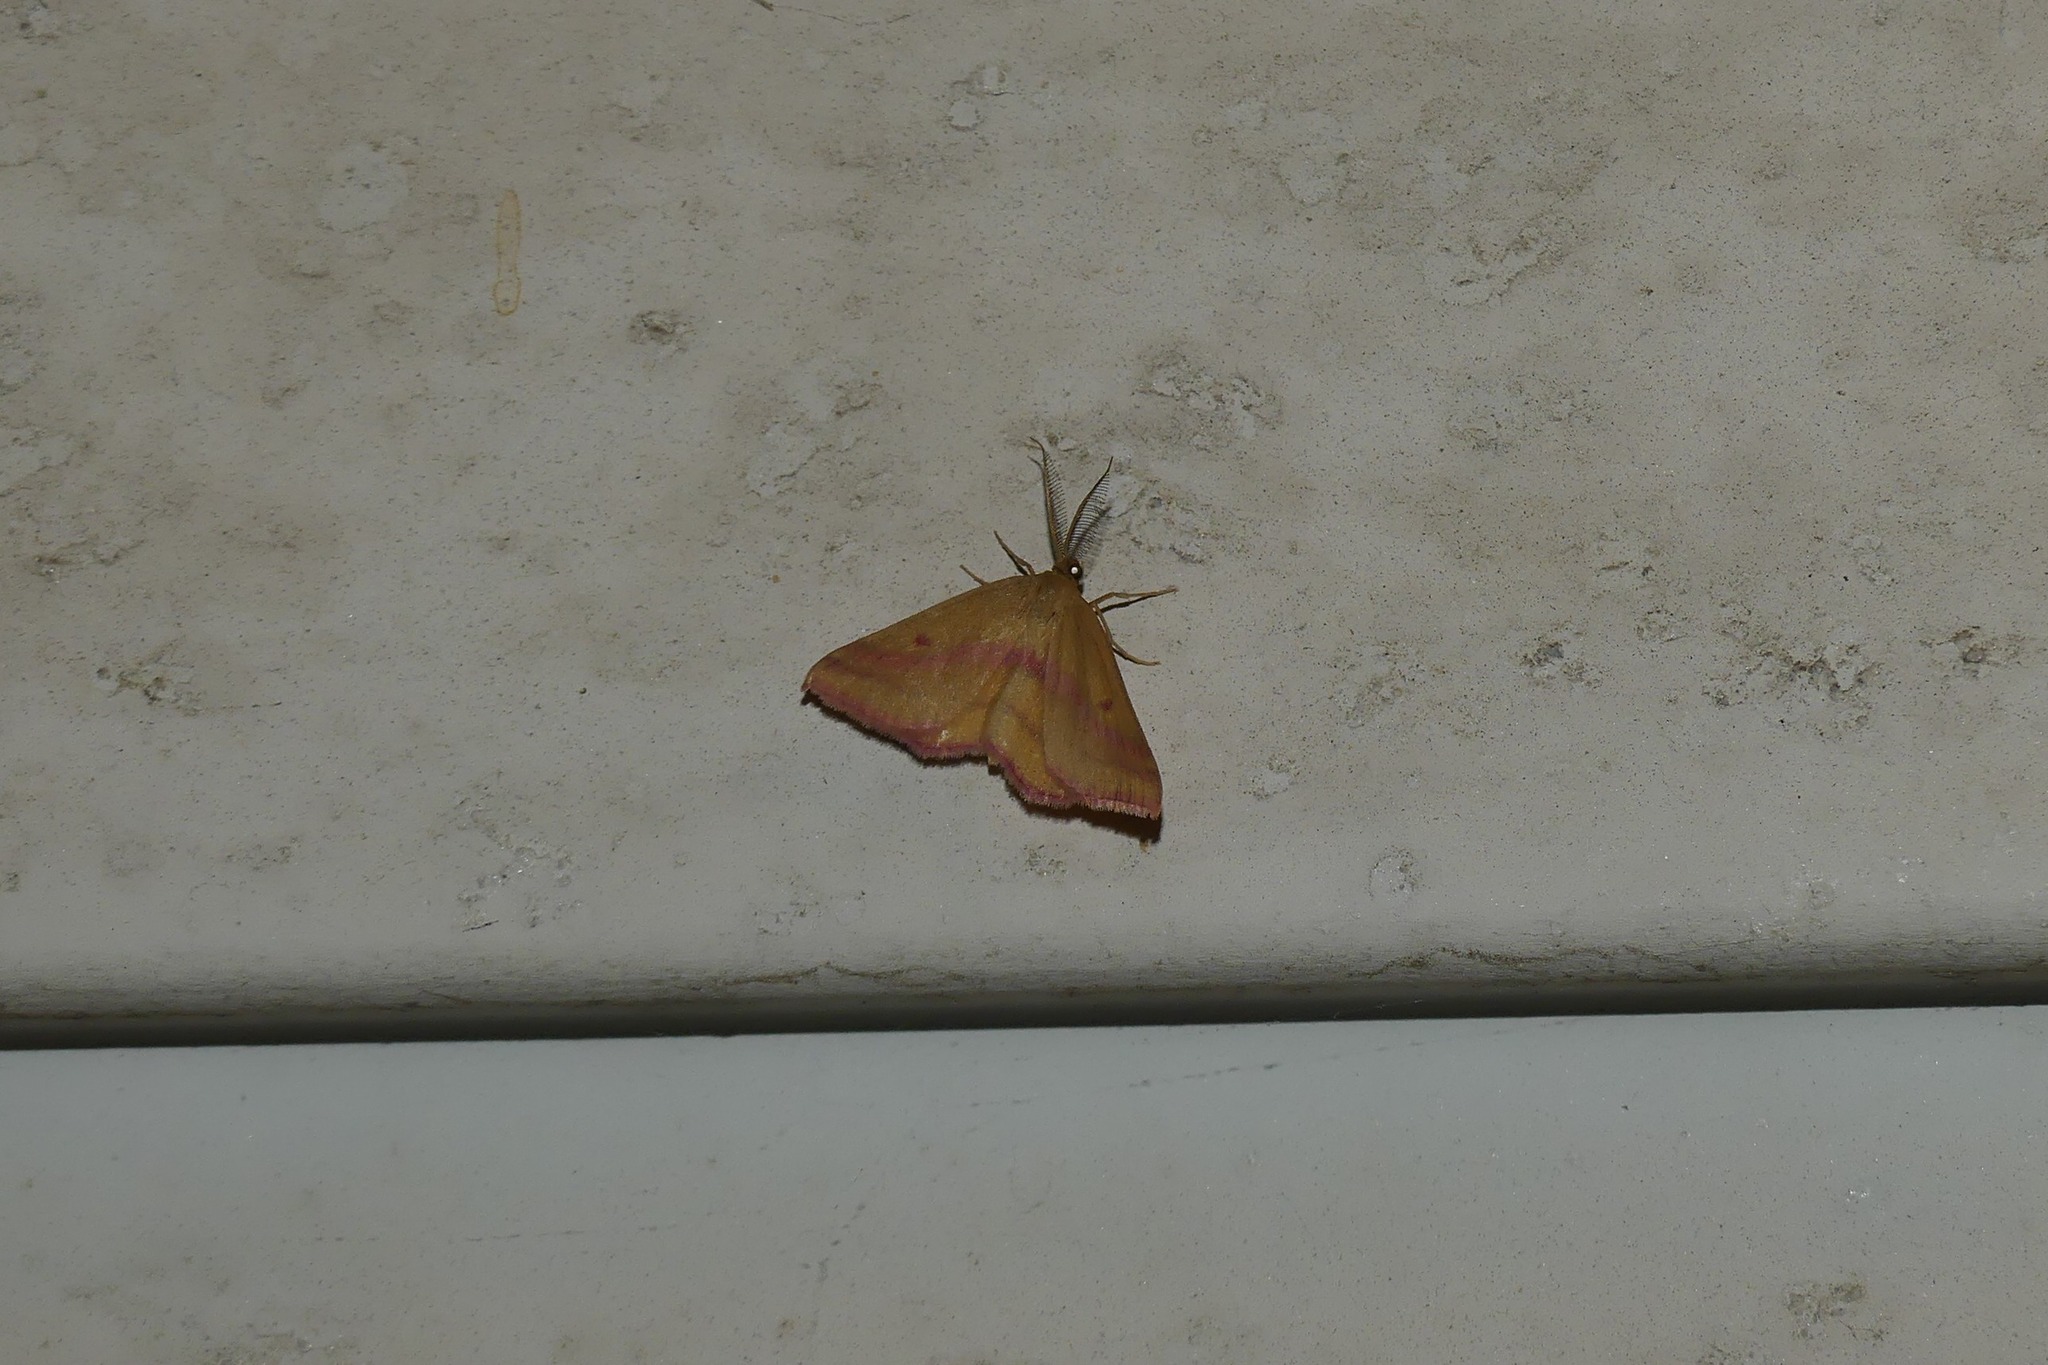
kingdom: Animalia
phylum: Arthropoda
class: Insecta
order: Lepidoptera
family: Geometridae
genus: Haematopis
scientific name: Haematopis grataria
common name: Chickweed geometer
